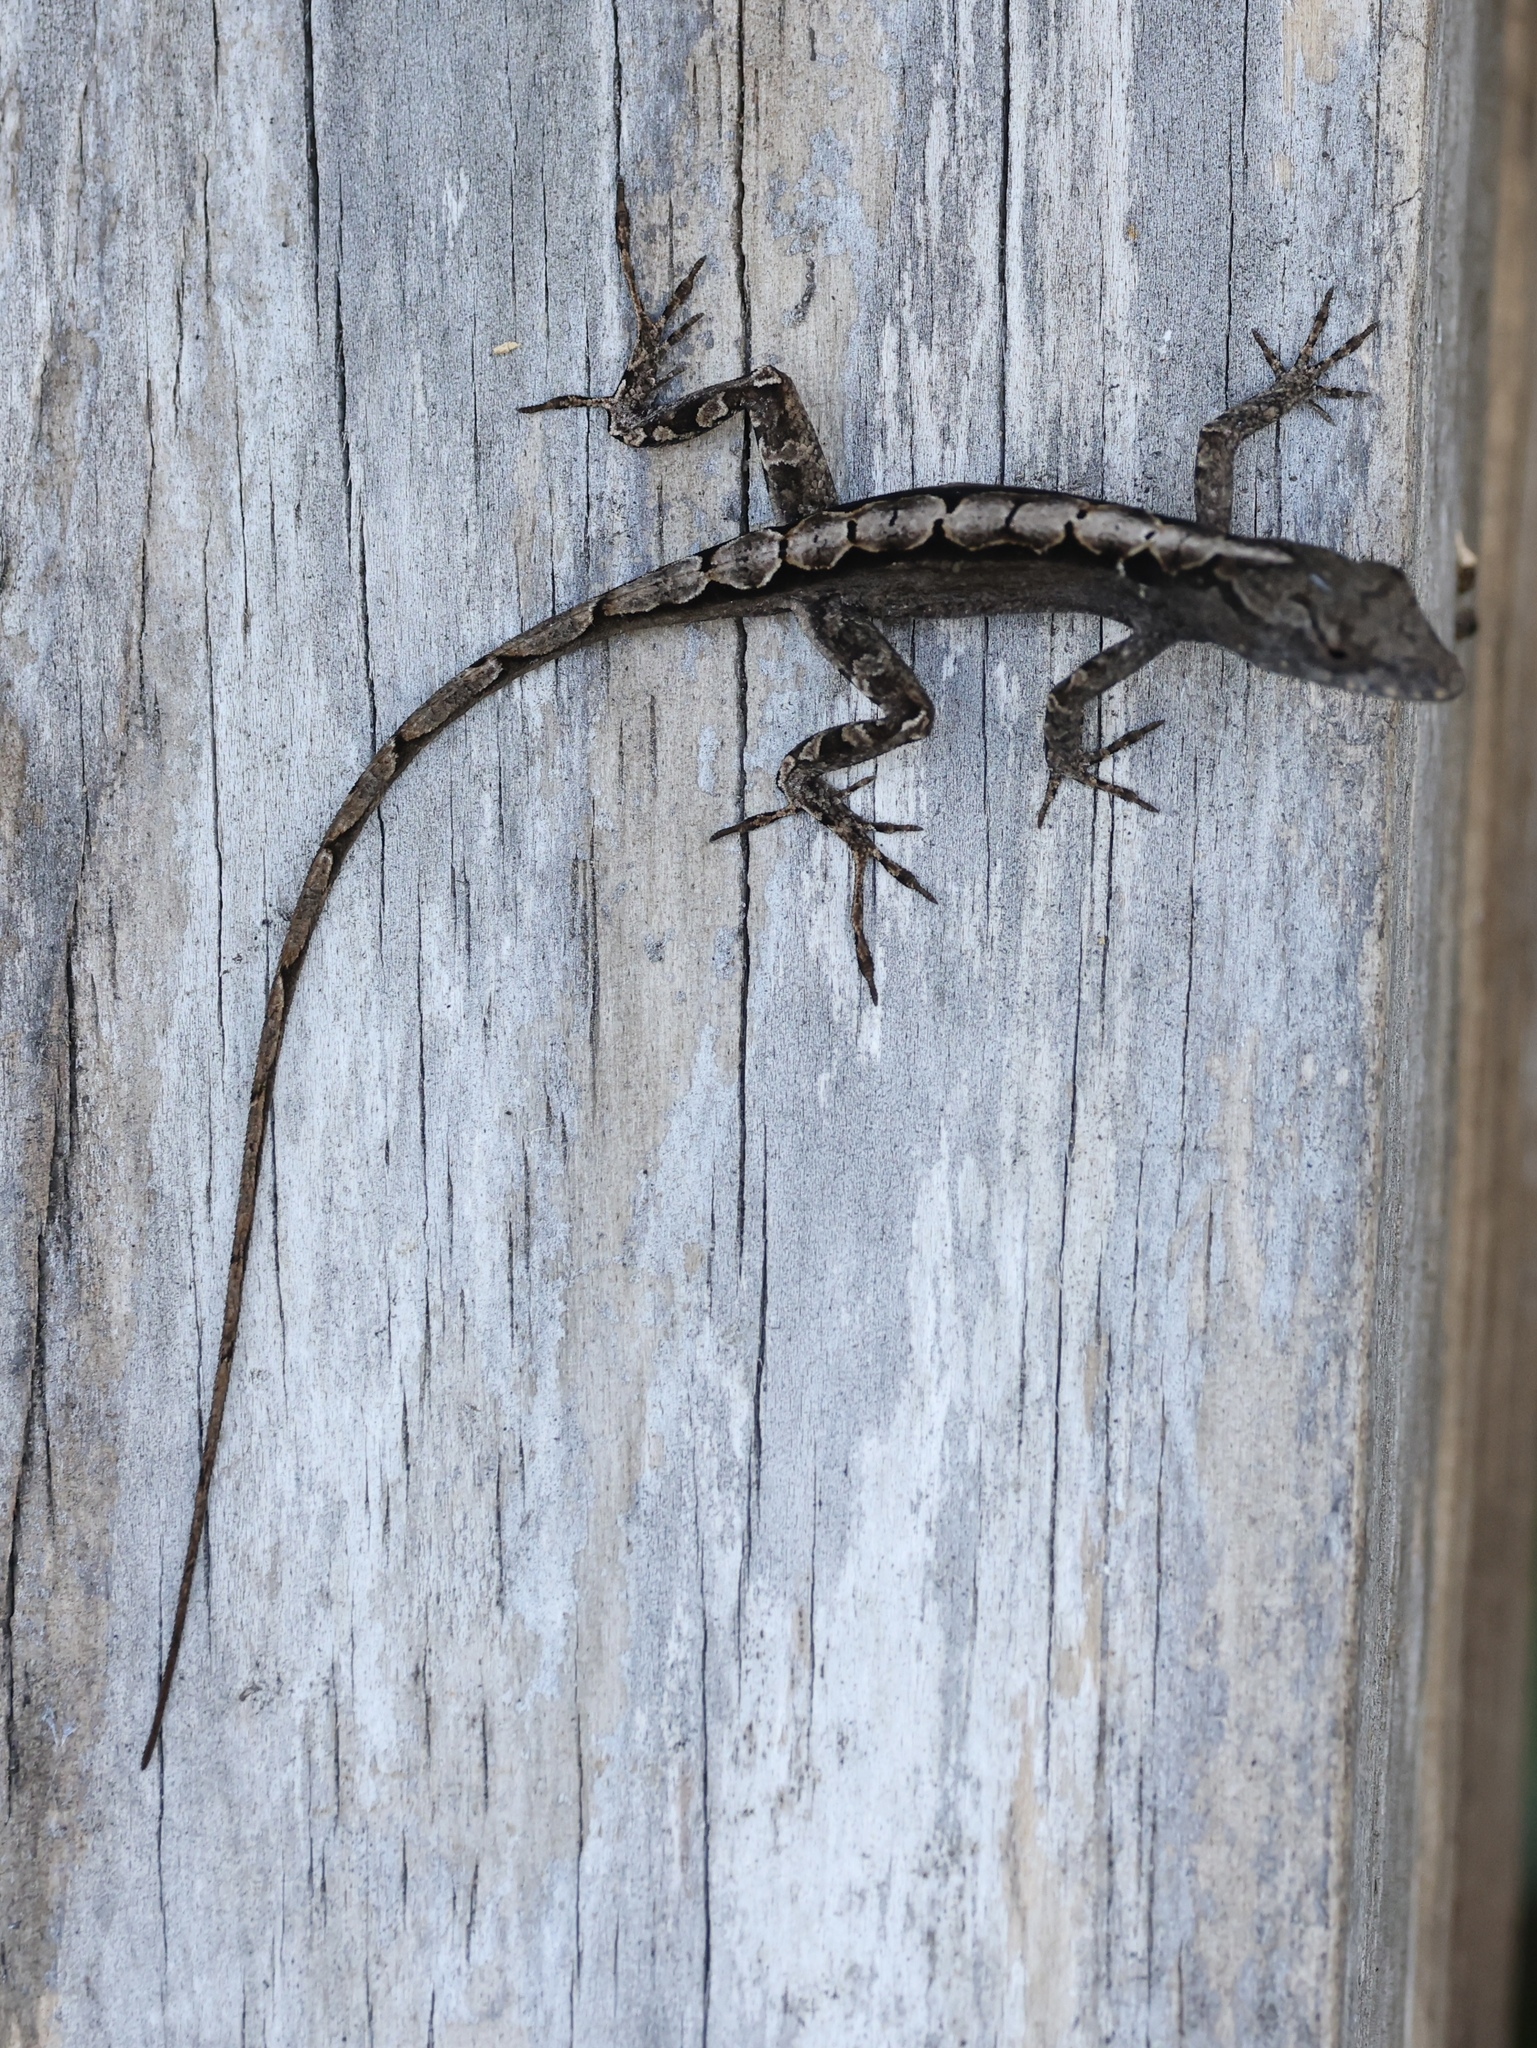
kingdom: Animalia
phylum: Chordata
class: Squamata
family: Dactyloidae
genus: Anolis
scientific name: Anolis sagrei
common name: Brown anole
